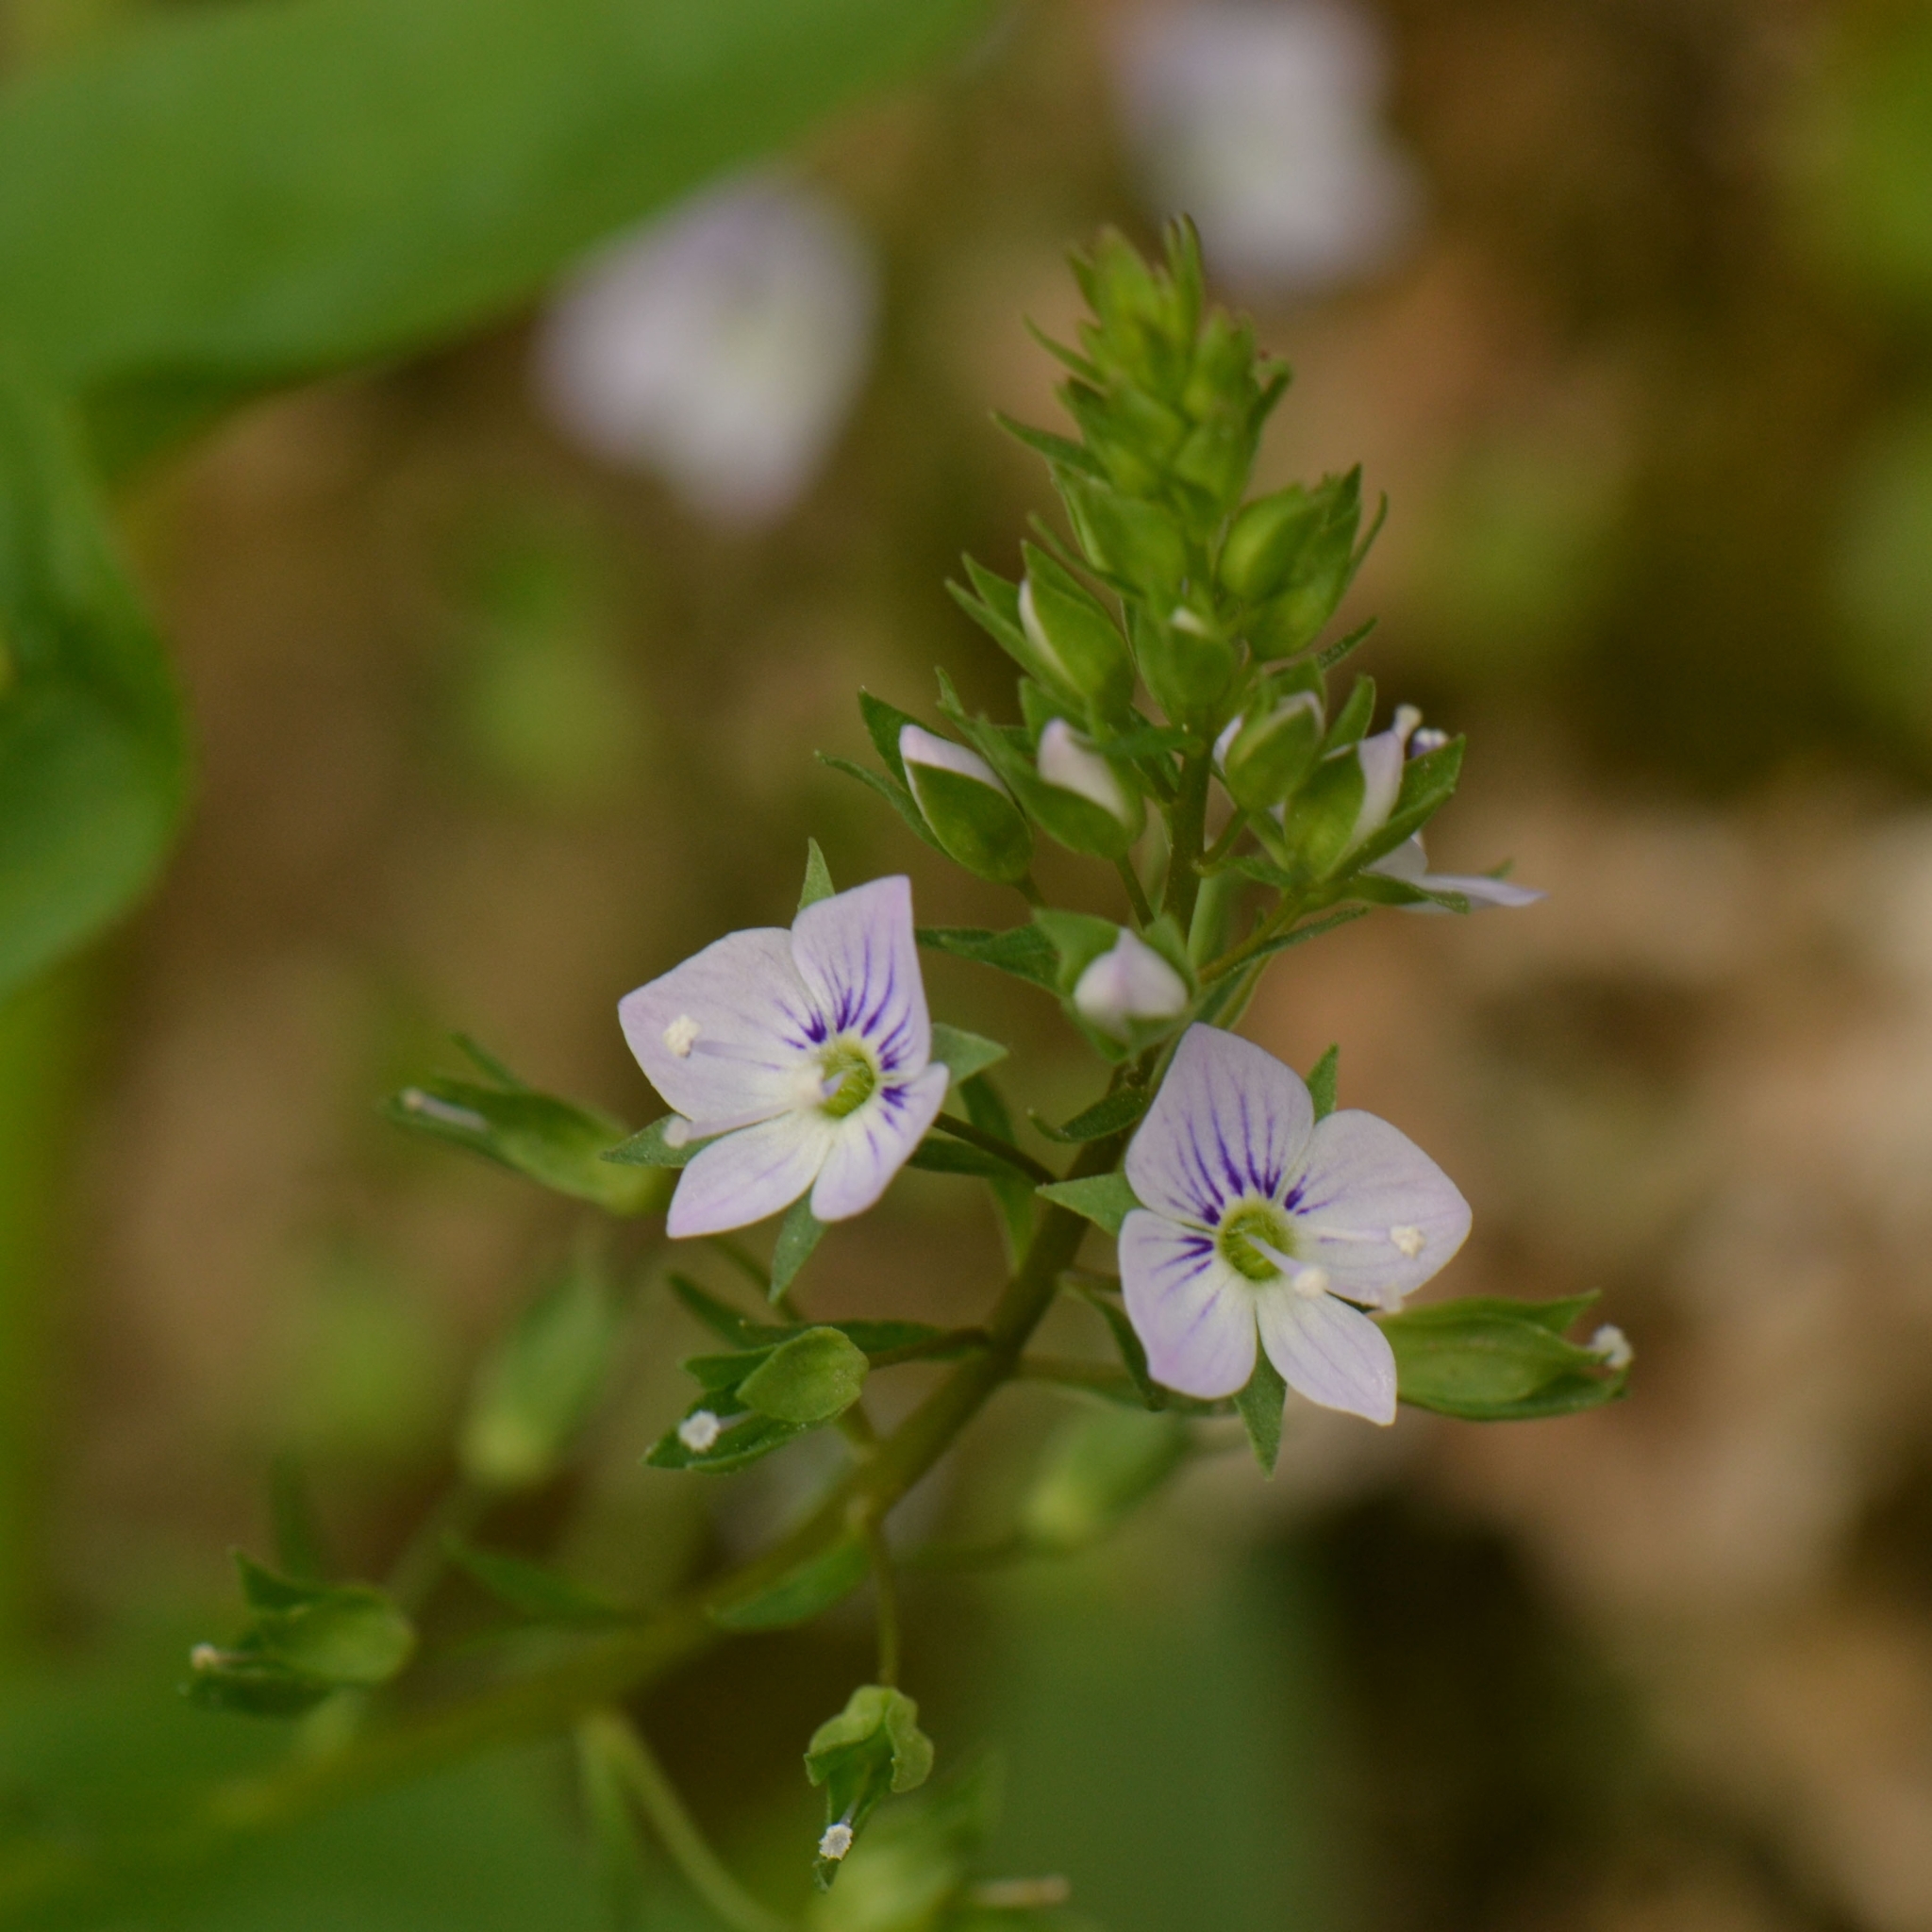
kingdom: Plantae
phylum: Tracheophyta
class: Magnoliopsida
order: Lamiales
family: Plantaginaceae
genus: Veronica
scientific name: Veronica anagallis-aquatica
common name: Water speedwell
